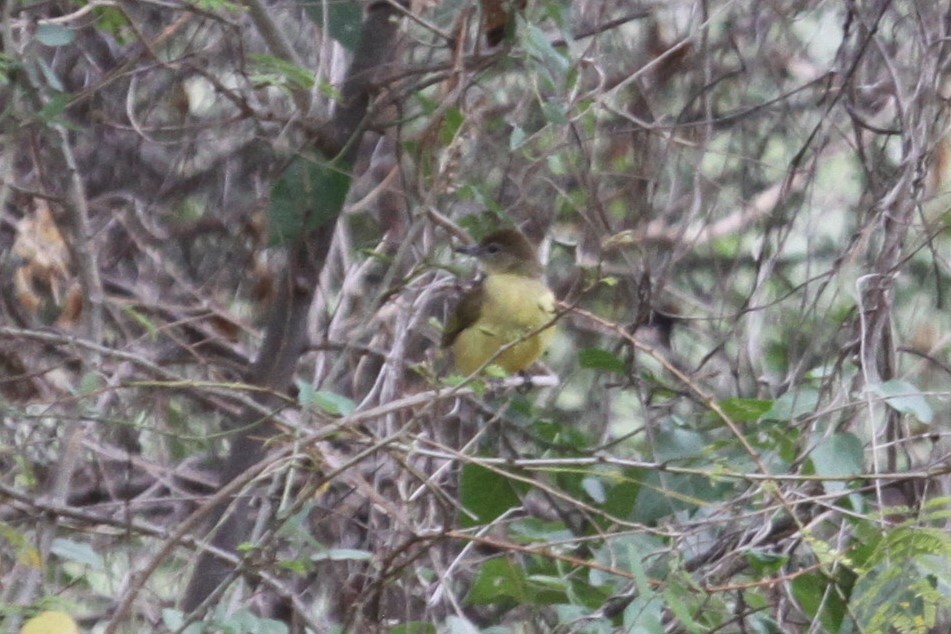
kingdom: Animalia
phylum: Chordata
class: Aves
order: Passeriformes
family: Pycnonotidae
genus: Chlorocichla
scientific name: Chlorocichla flaviventris
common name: Yellow-bellied greenbul
